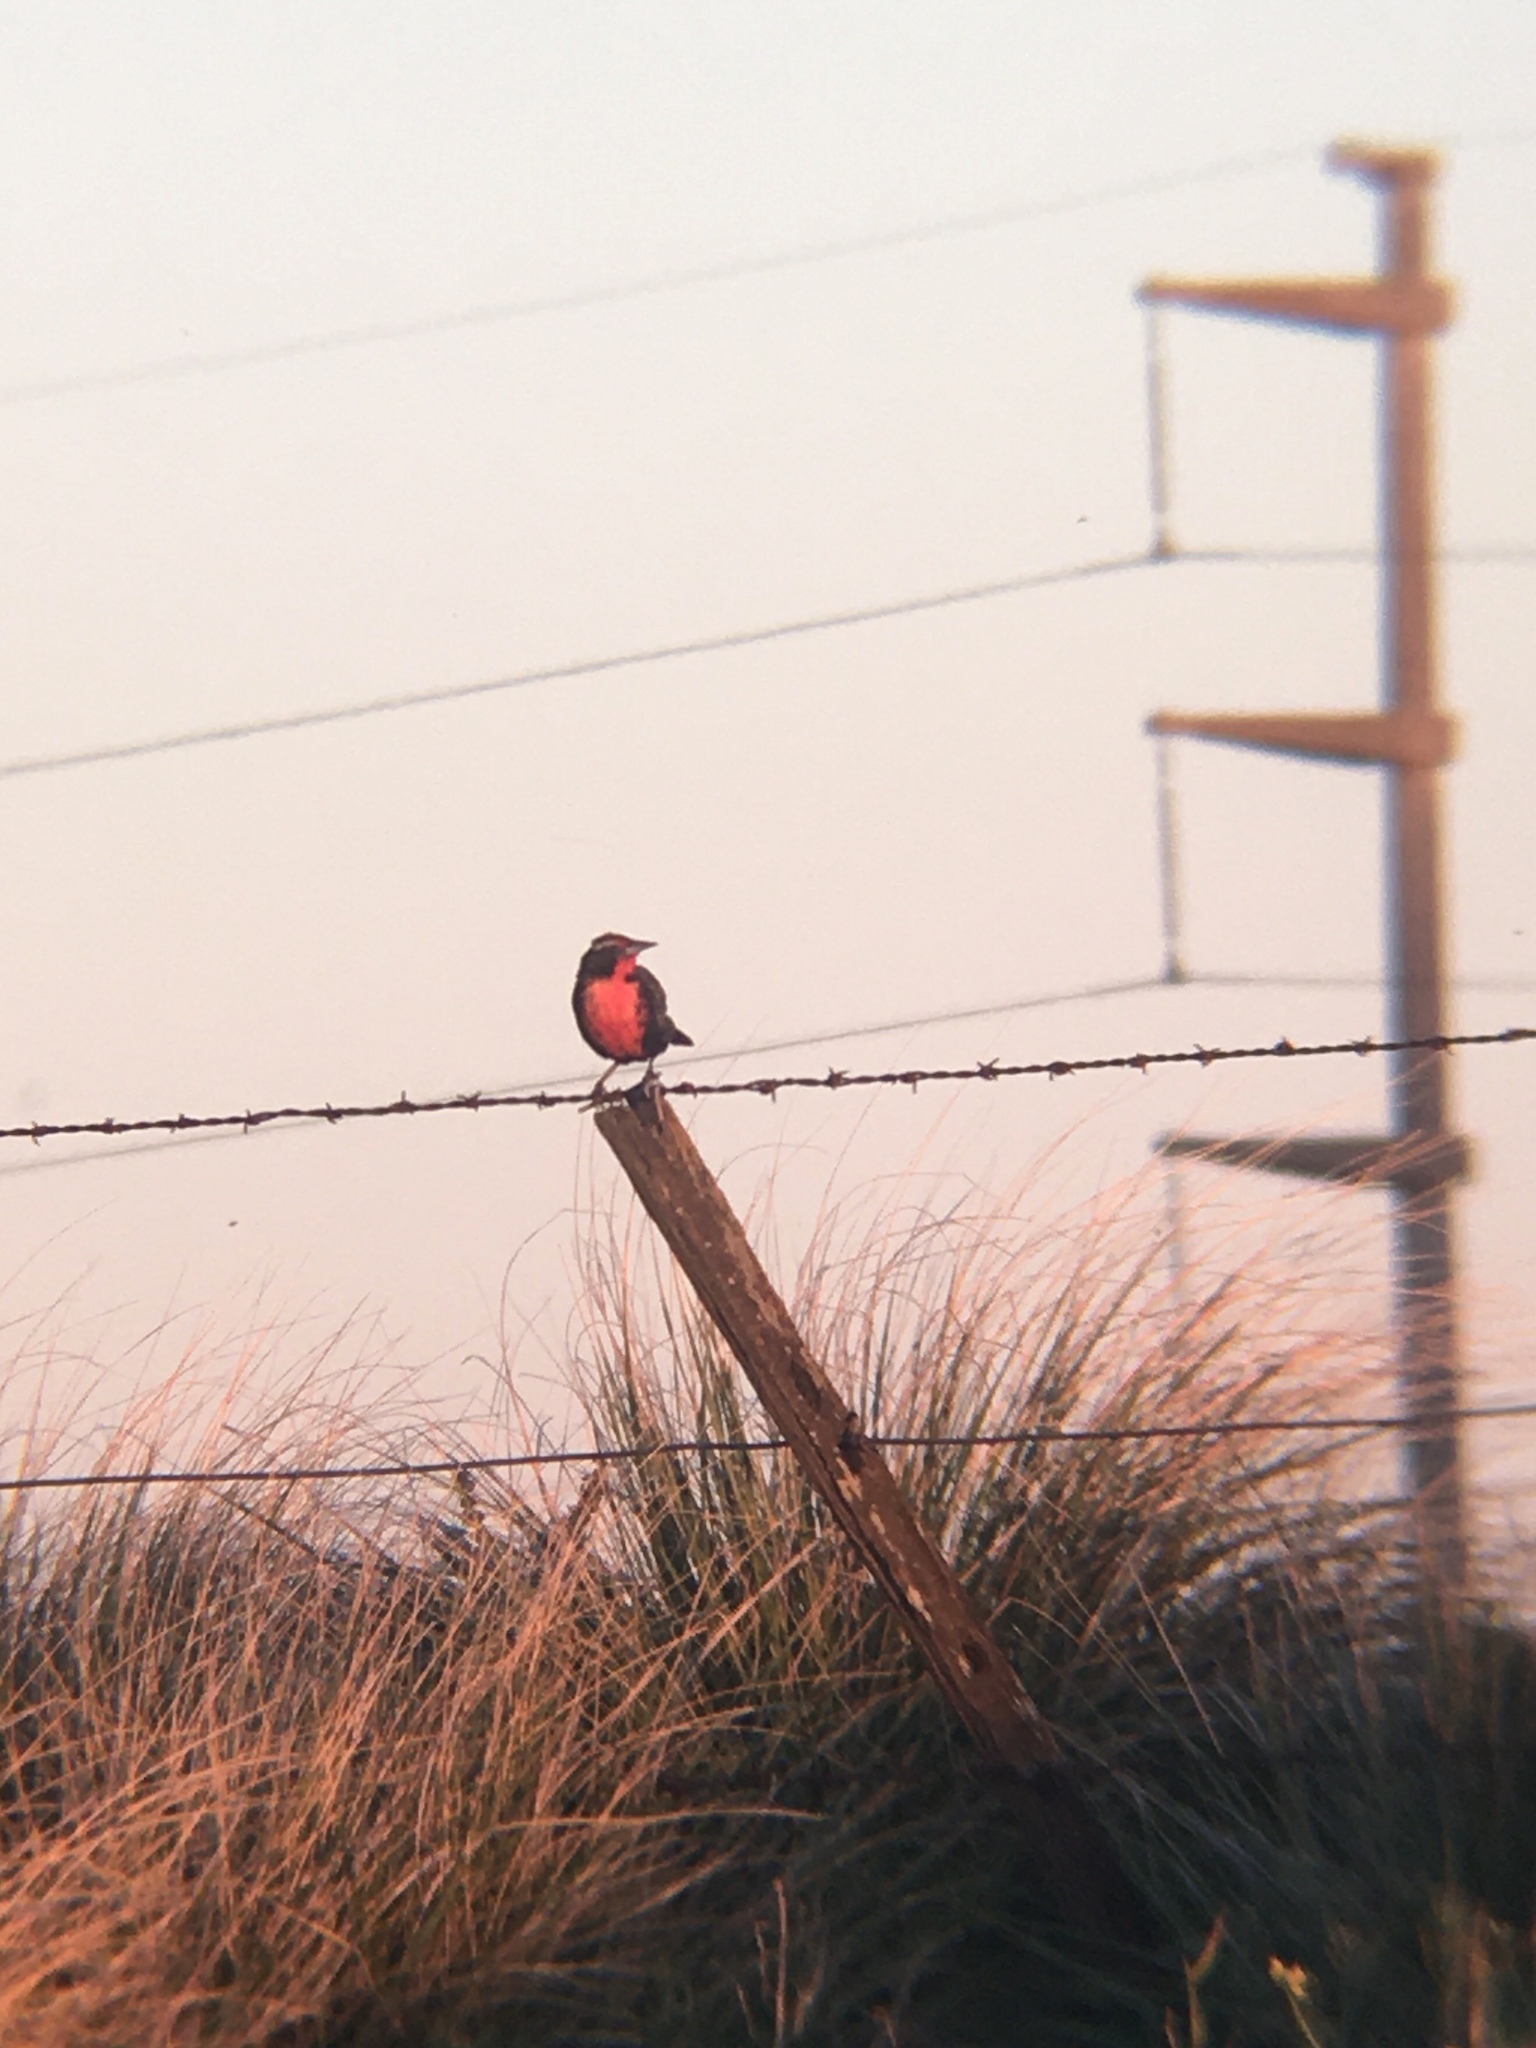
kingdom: Animalia
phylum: Chordata
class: Aves
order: Passeriformes
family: Icteridae
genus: Sturnella
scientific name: Sturnella loyca
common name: Long-tailed meadowlark
